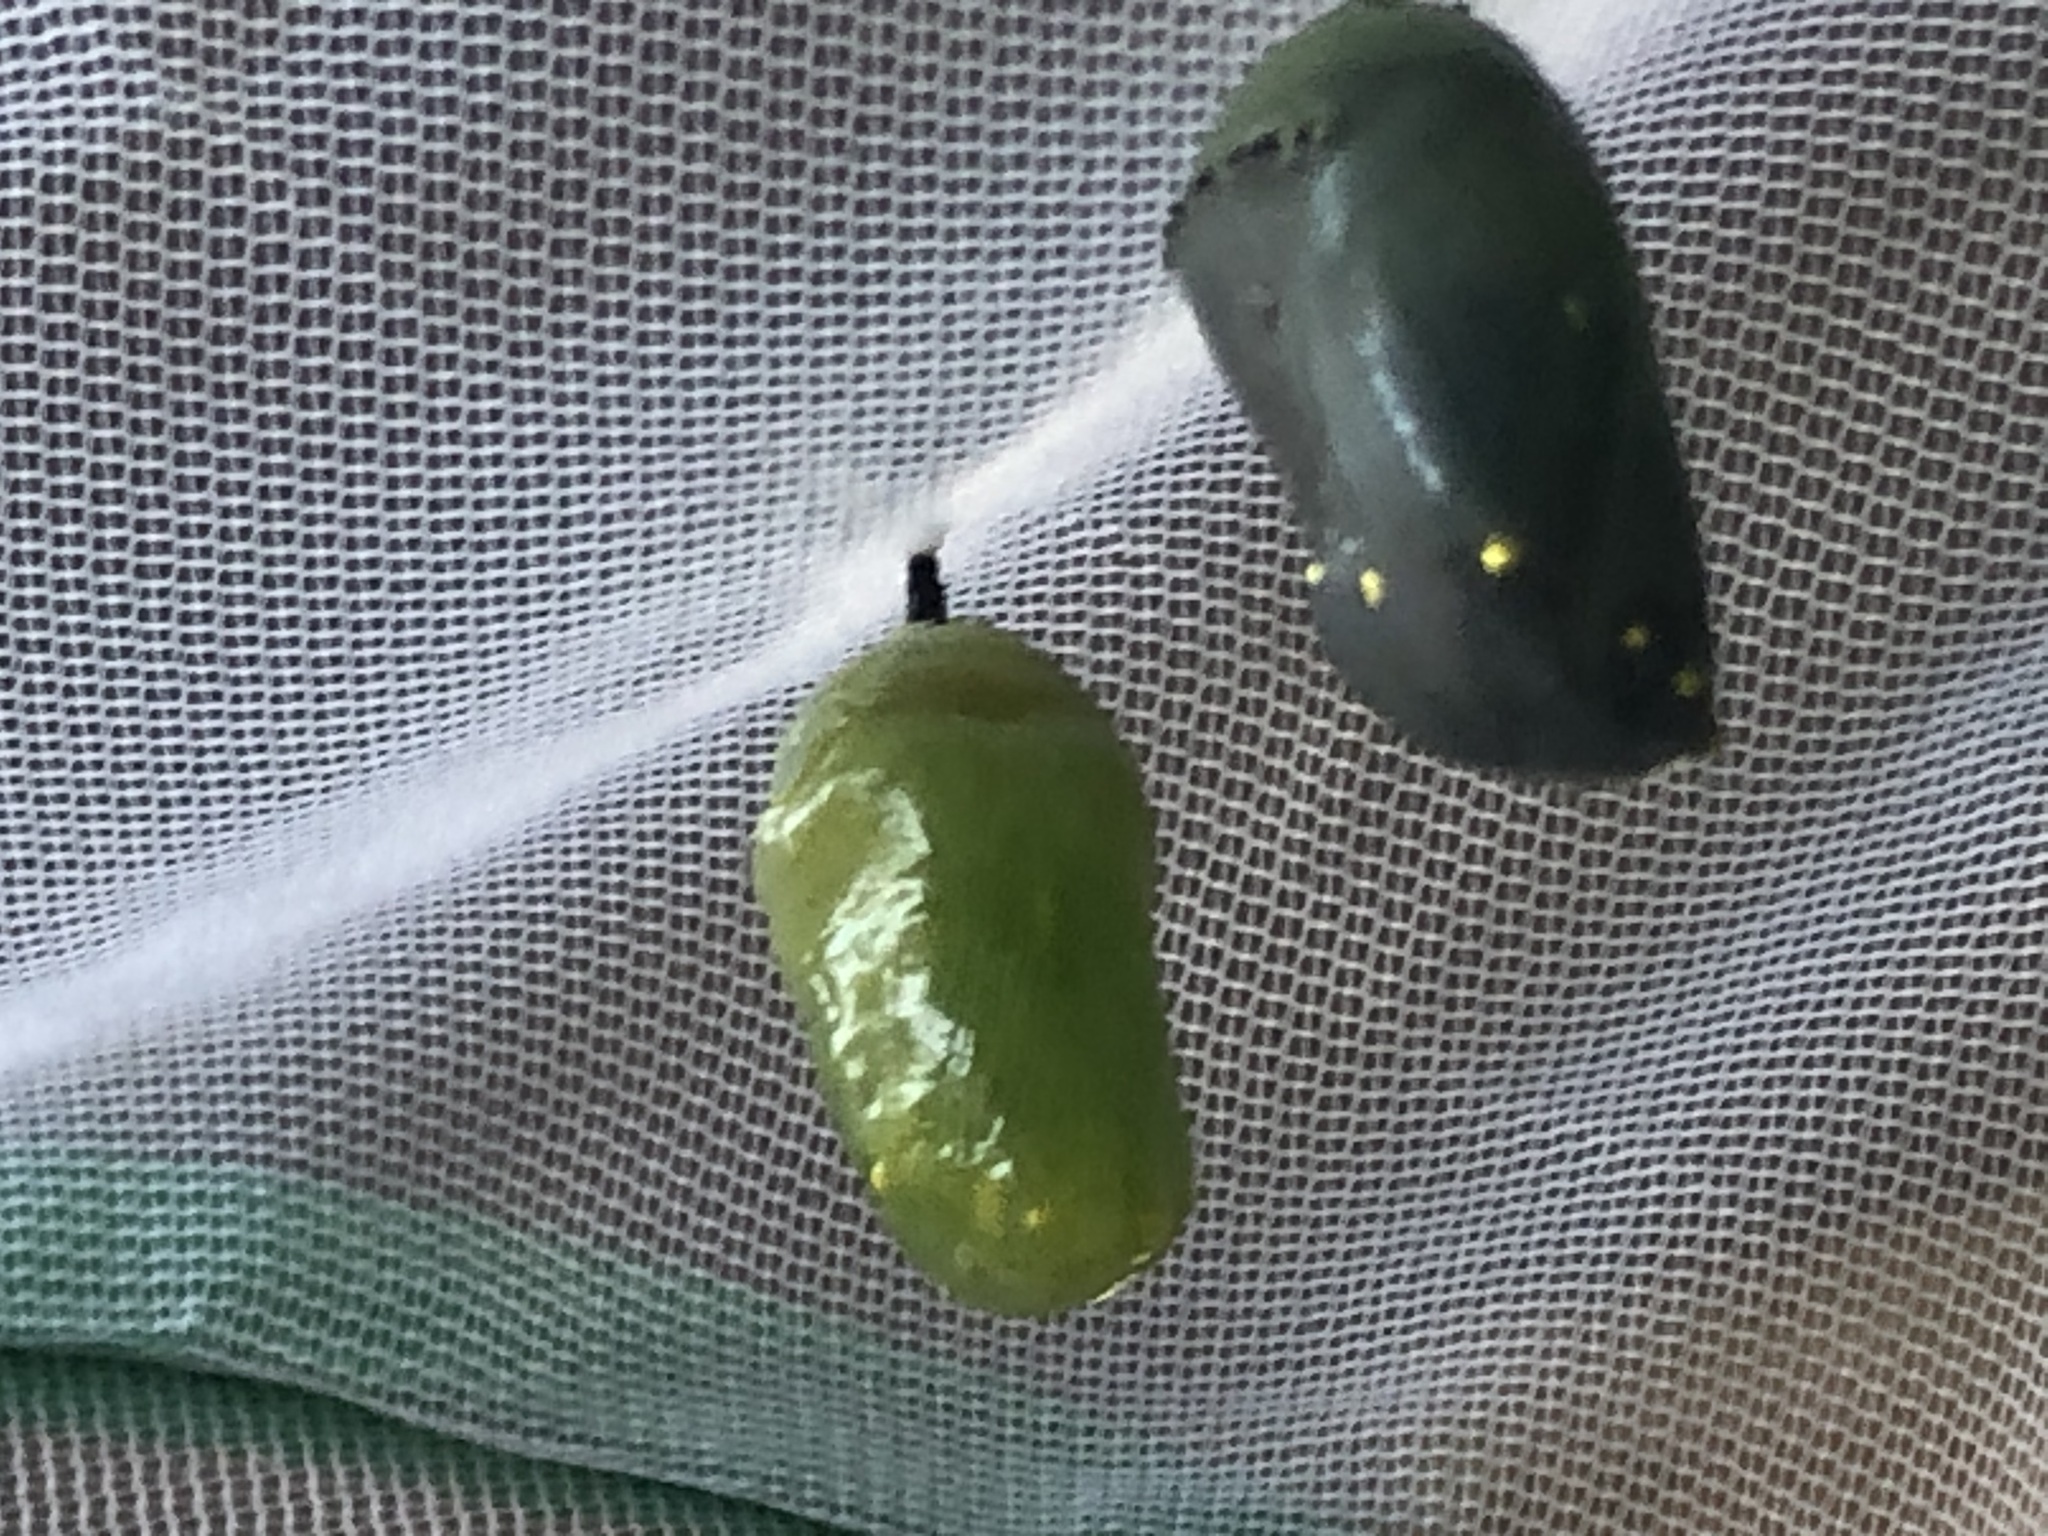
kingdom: Animalia
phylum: Arthropoda
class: Insecta
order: Lepidoptera
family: Nymphalidae
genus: Danaus
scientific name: Danaus plexippus
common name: Monarch
